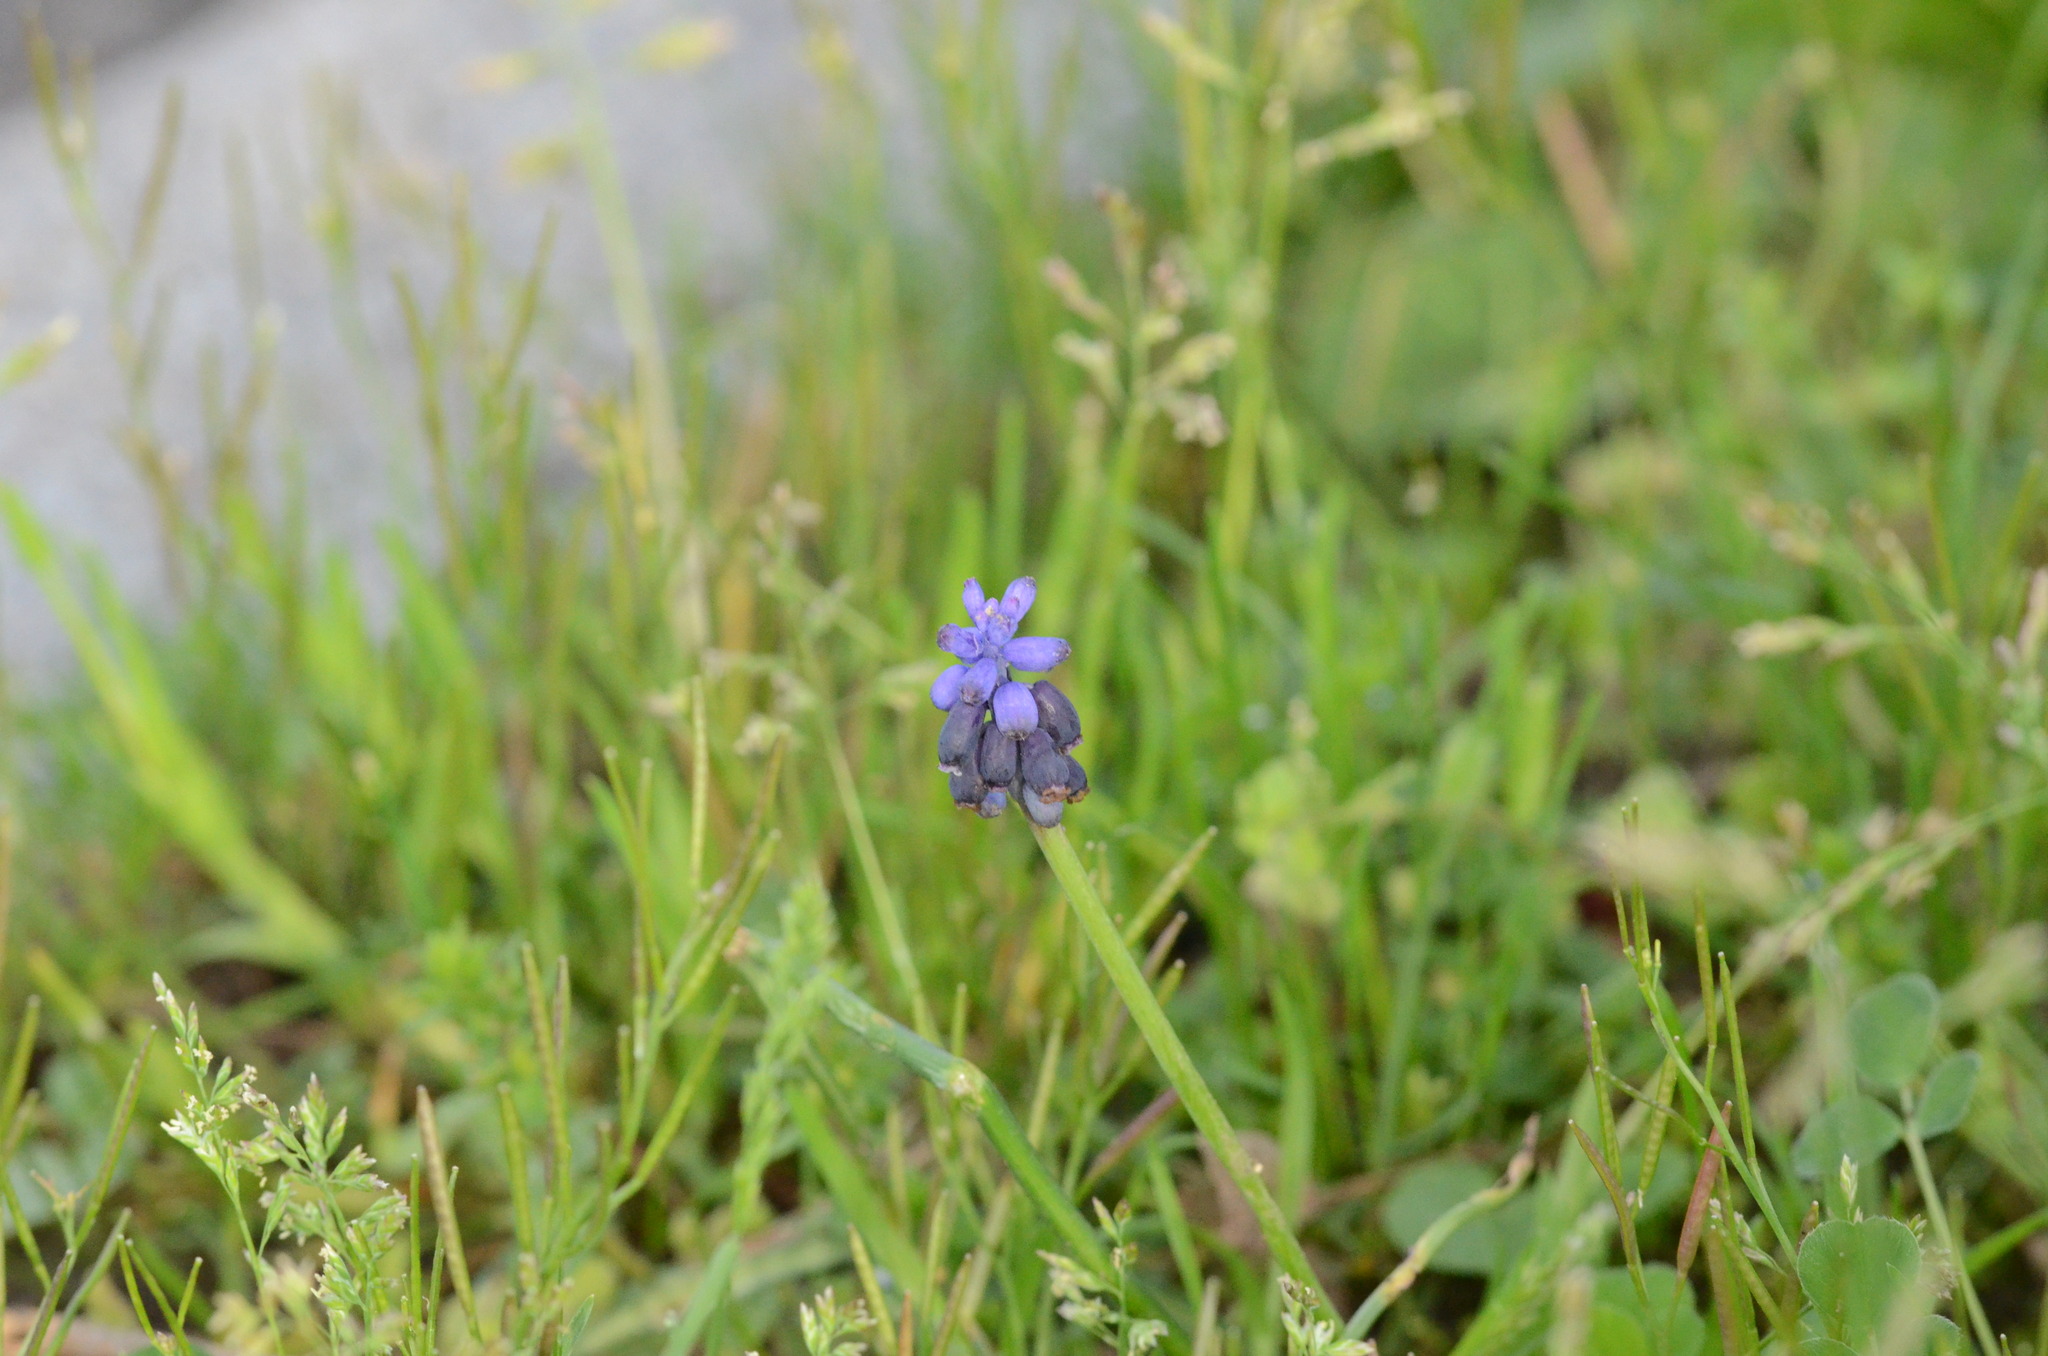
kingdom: Plantae
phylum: Tracheophyta
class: Liliopsida
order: Asparagales
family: Asparagaceae
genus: Muscari
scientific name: Muscari neglectum
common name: Grape-hyacinth
